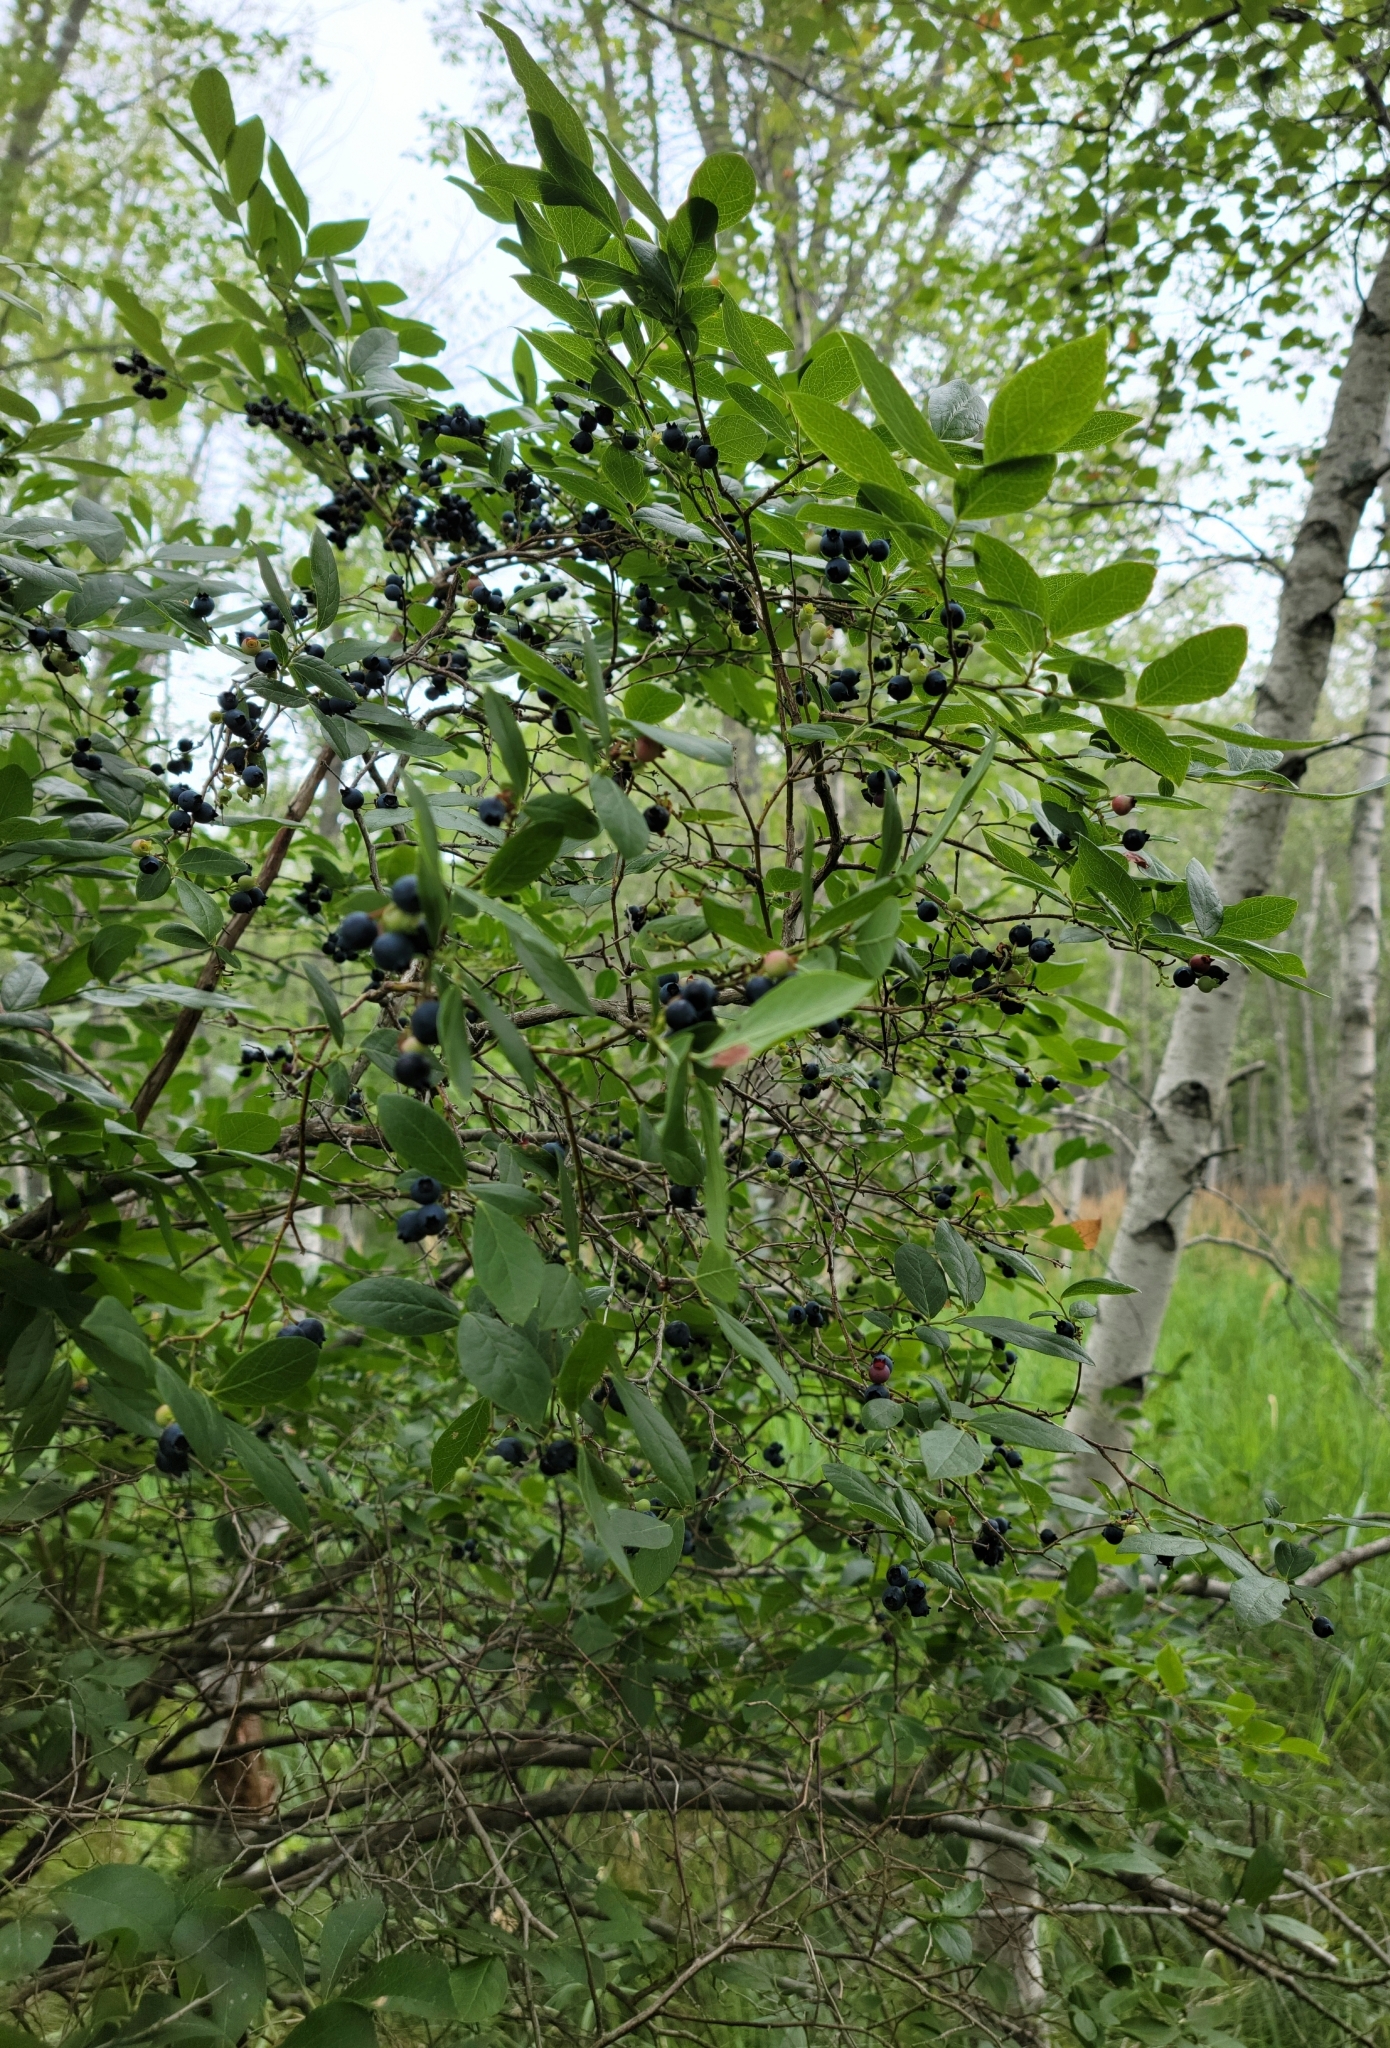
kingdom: Plantae
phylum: Tracheophyta
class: Magnoliopsida
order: Ericales
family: Ericaceae
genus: Vaccinium
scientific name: Vaccinium corymbosum
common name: Blueberry
